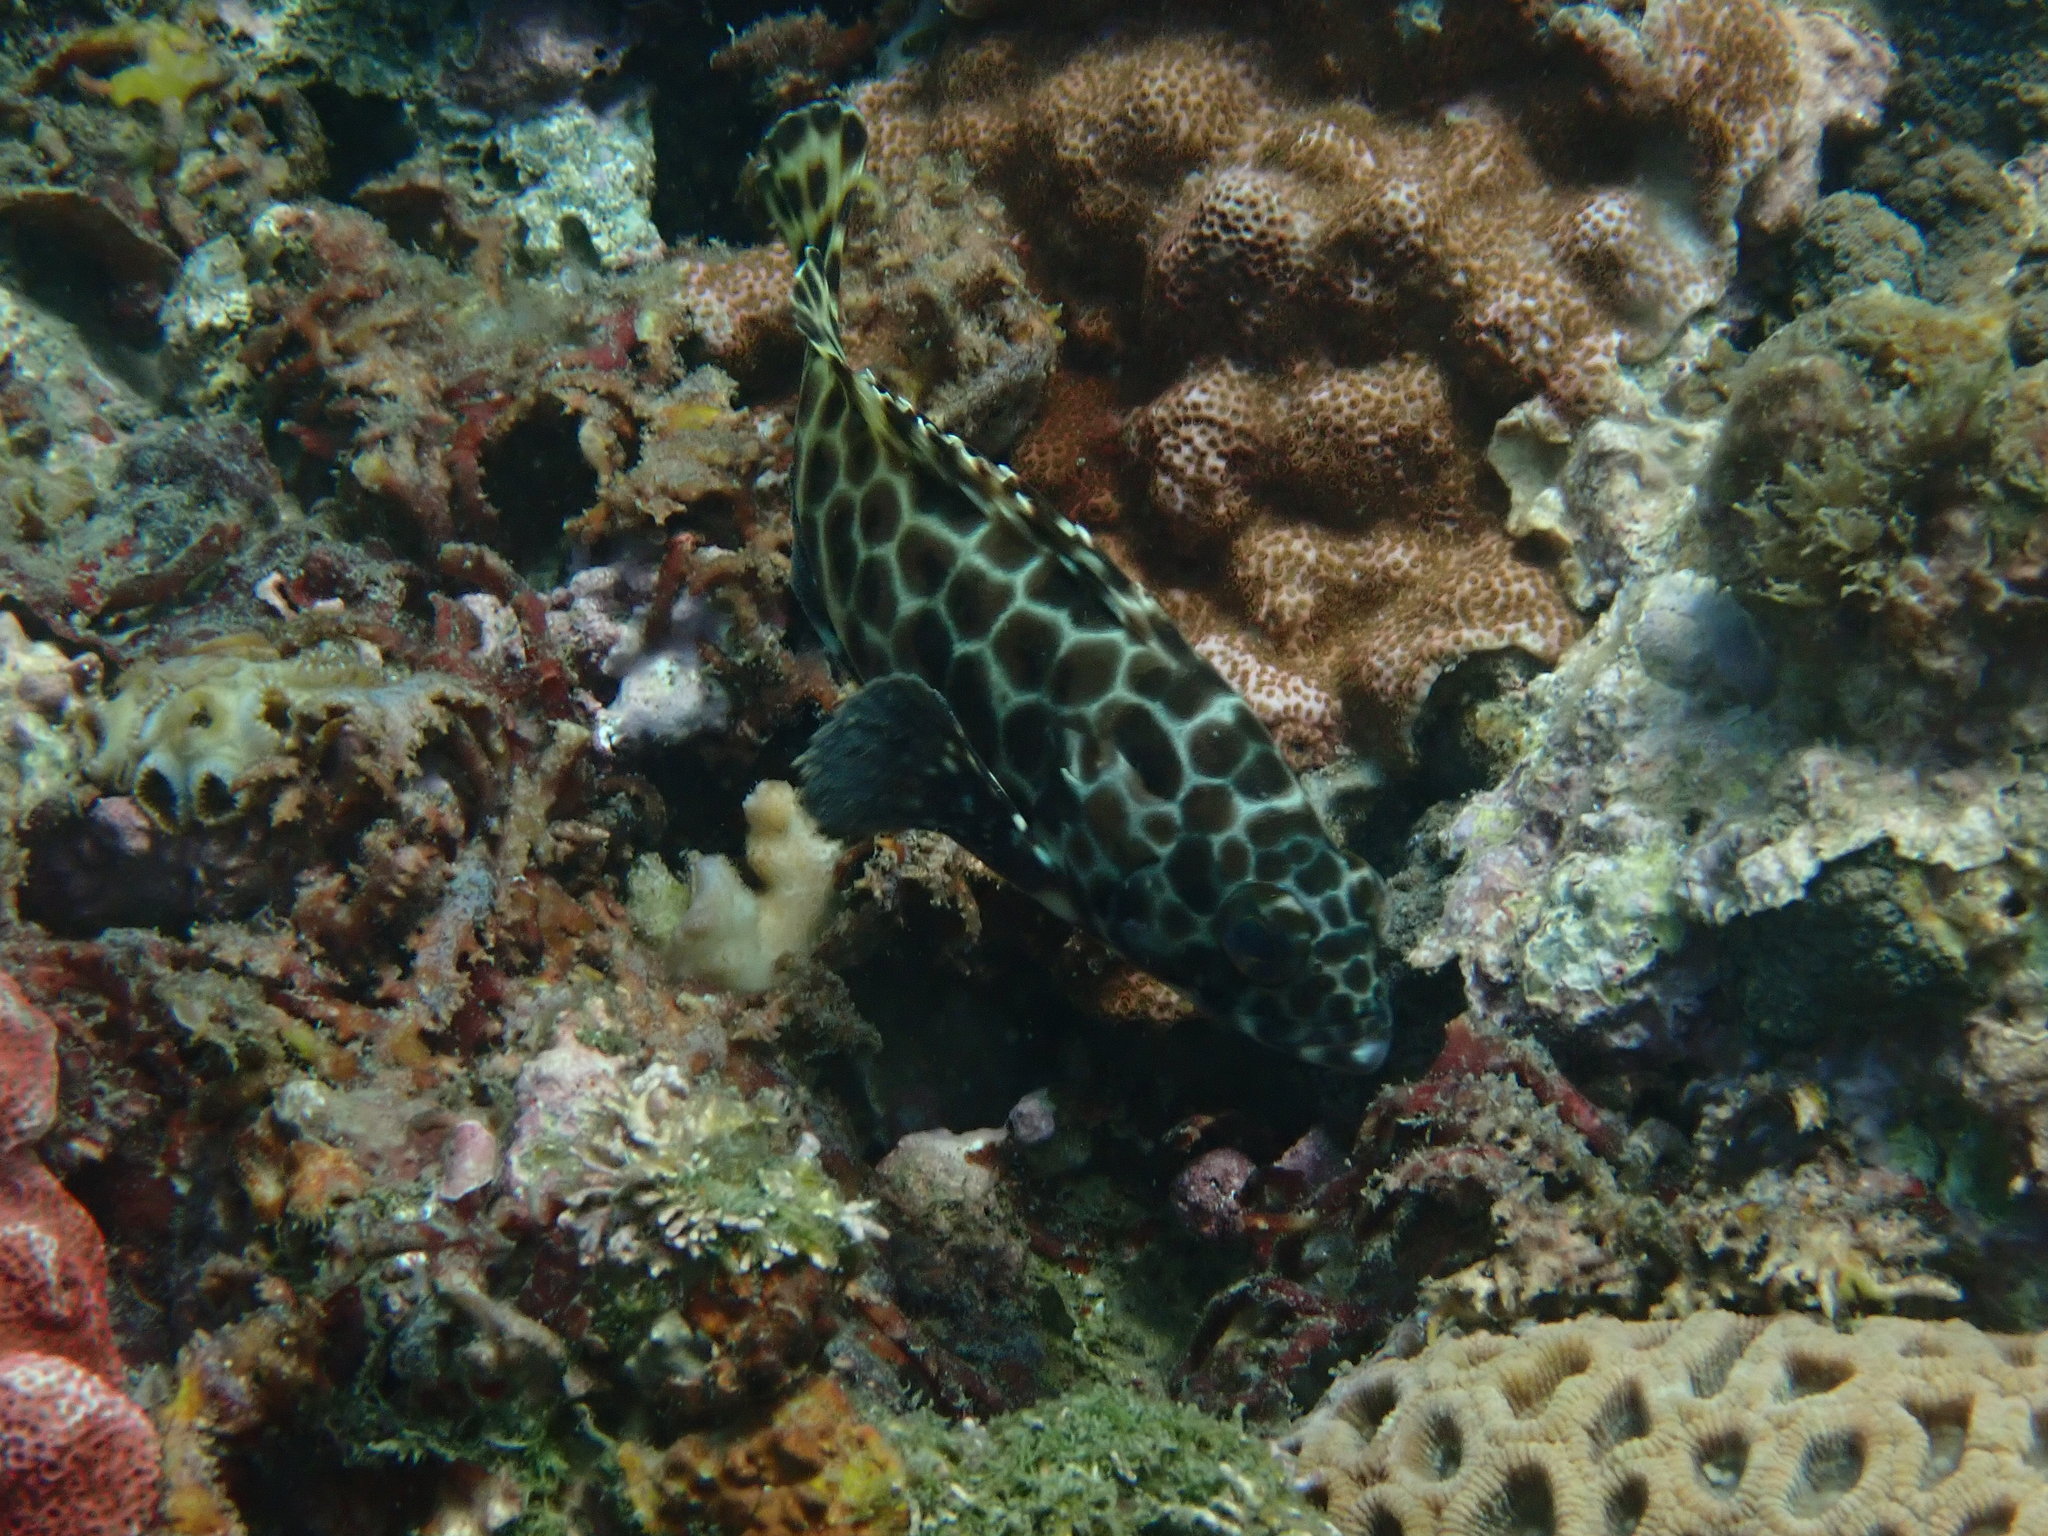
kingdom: Animalia
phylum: Chordata
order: Perciformes
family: Serranidae
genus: Epinephelus
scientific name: Epinephelus quoyanus
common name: Longfin grouper
